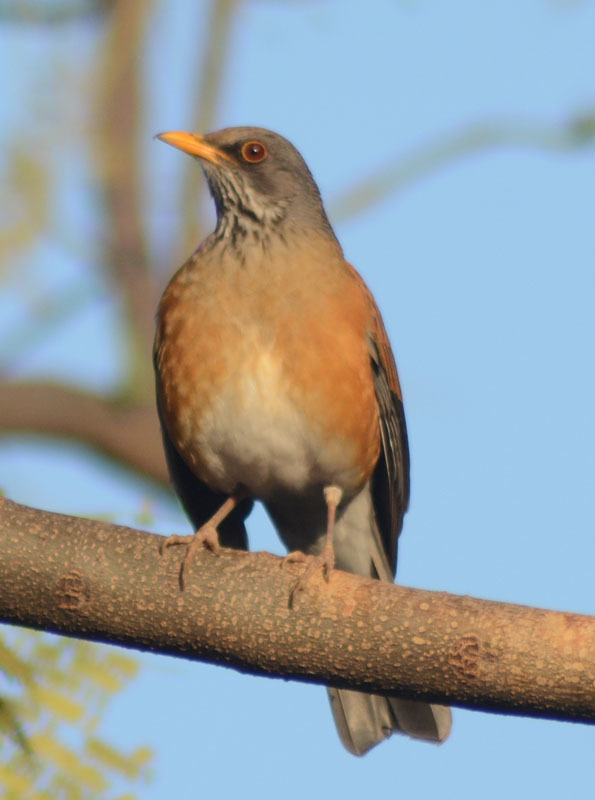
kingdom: Animalia
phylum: Chordata
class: Aves
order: Passeriformes
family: Turdidae
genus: Turdus
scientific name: Turdus rufopalliatus
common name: Rufous-backed robin
